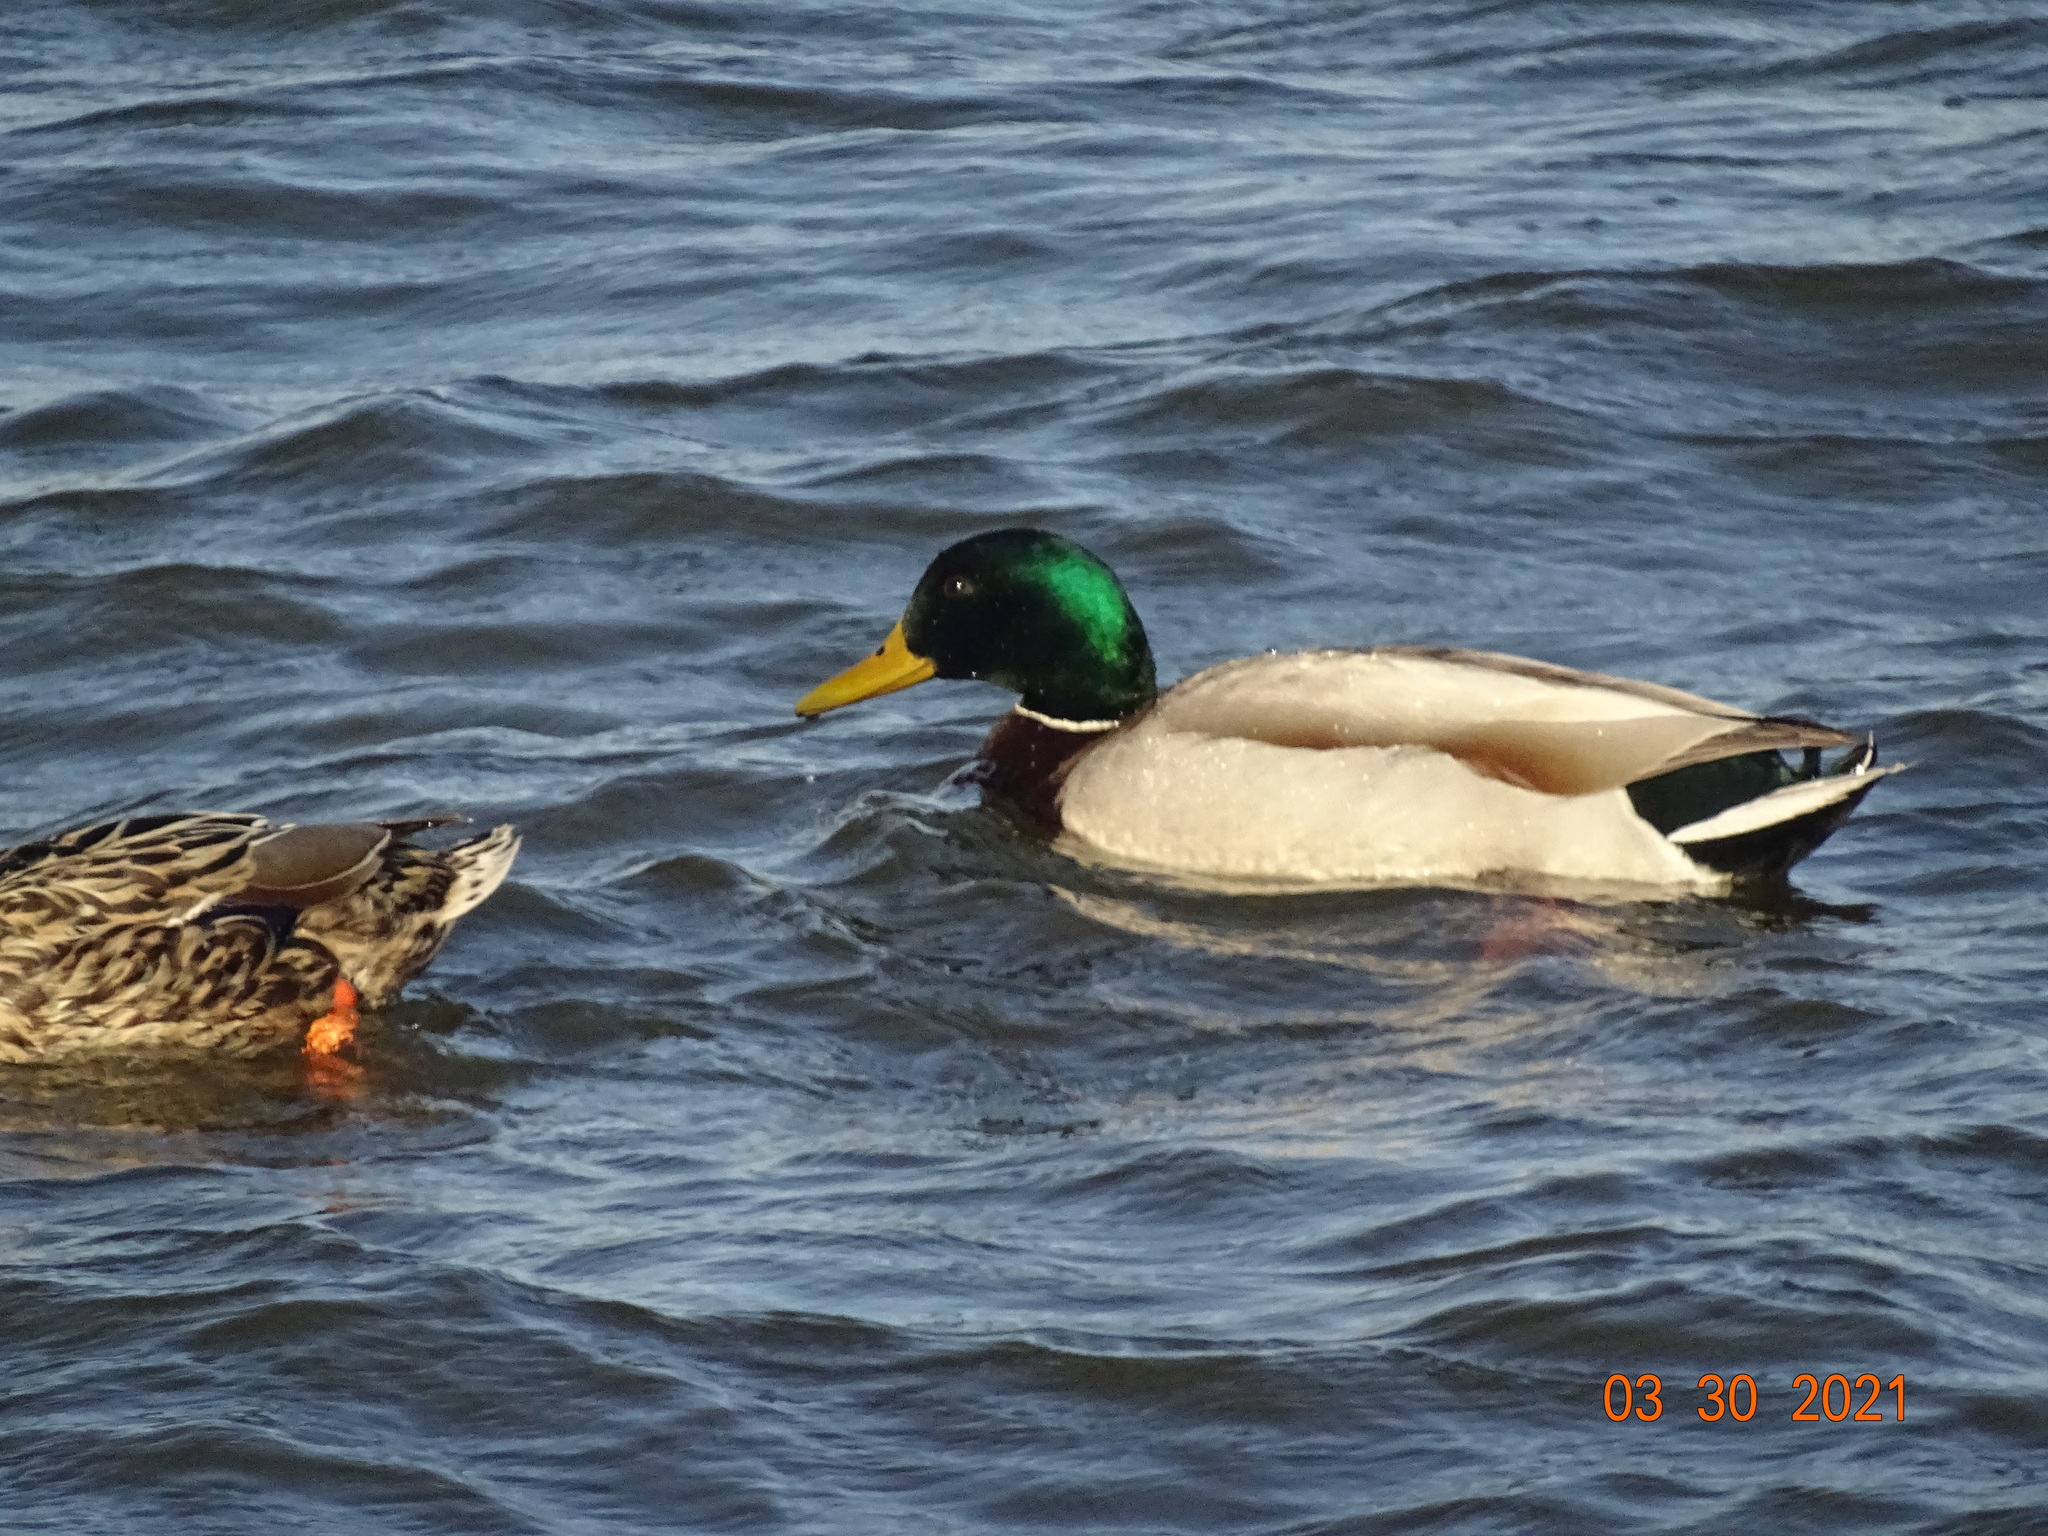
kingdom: Animalia
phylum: Chordata
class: Aves
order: Anseriformes
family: Anatidae
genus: Anas
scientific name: Anas platyrhynchos
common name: Mallard
